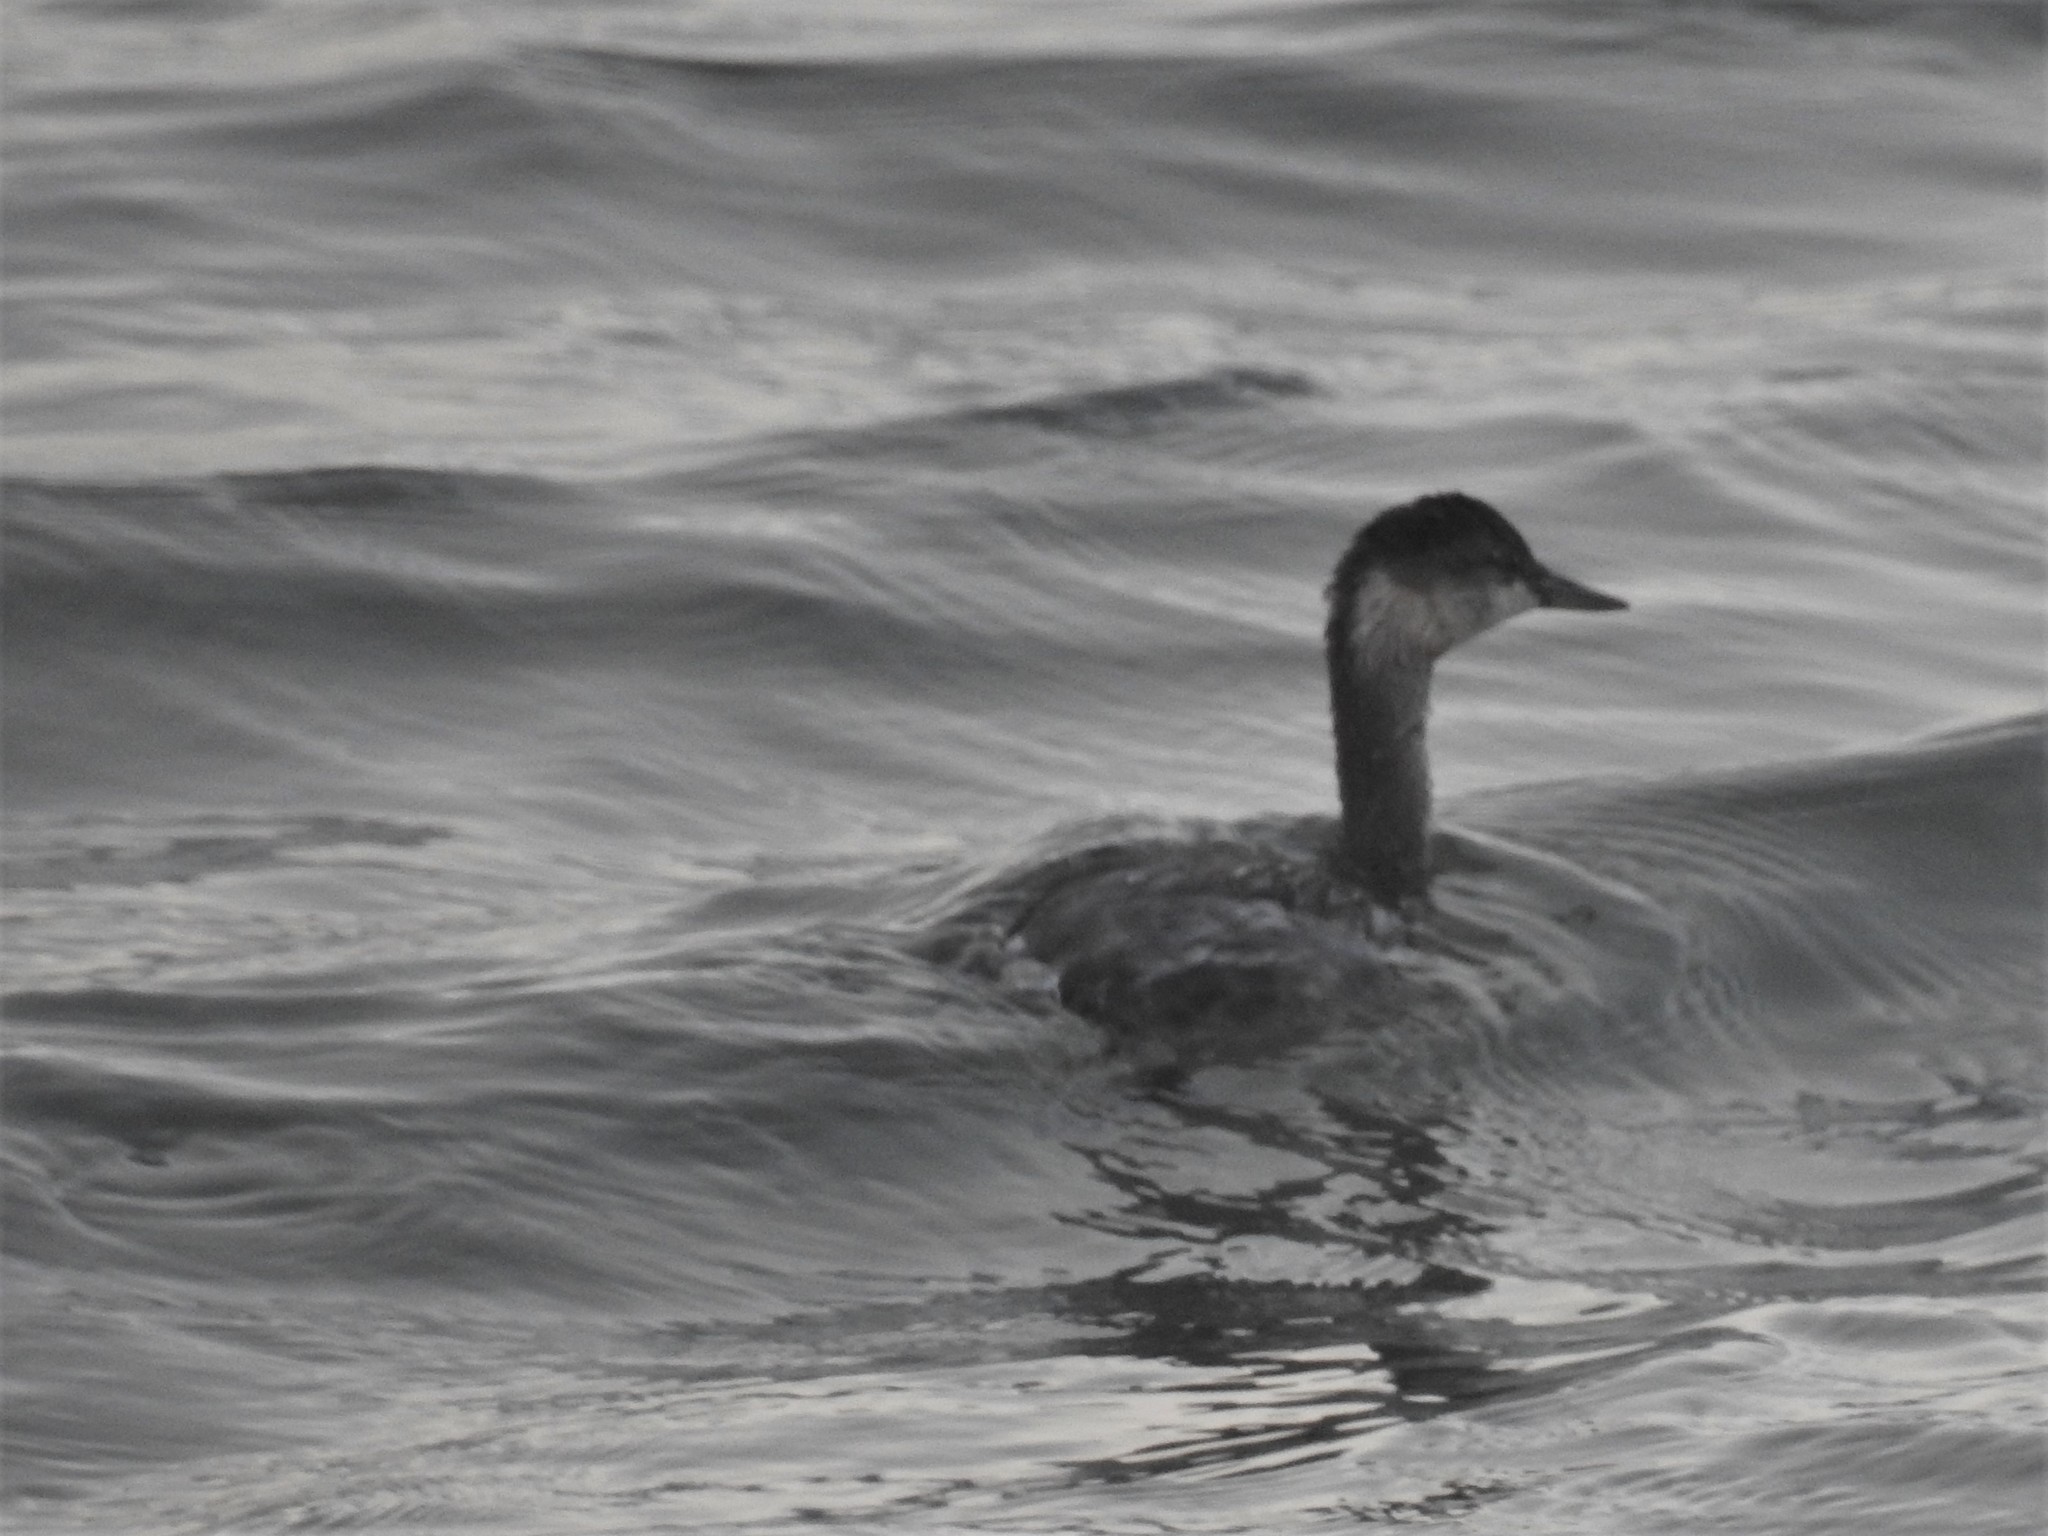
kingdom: Animalia
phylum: Chordata
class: Aves
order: Podicipediformes
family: Podicipedidae
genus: Podiceps
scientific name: Podiceps nigricollis
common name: Black-necked grebe
